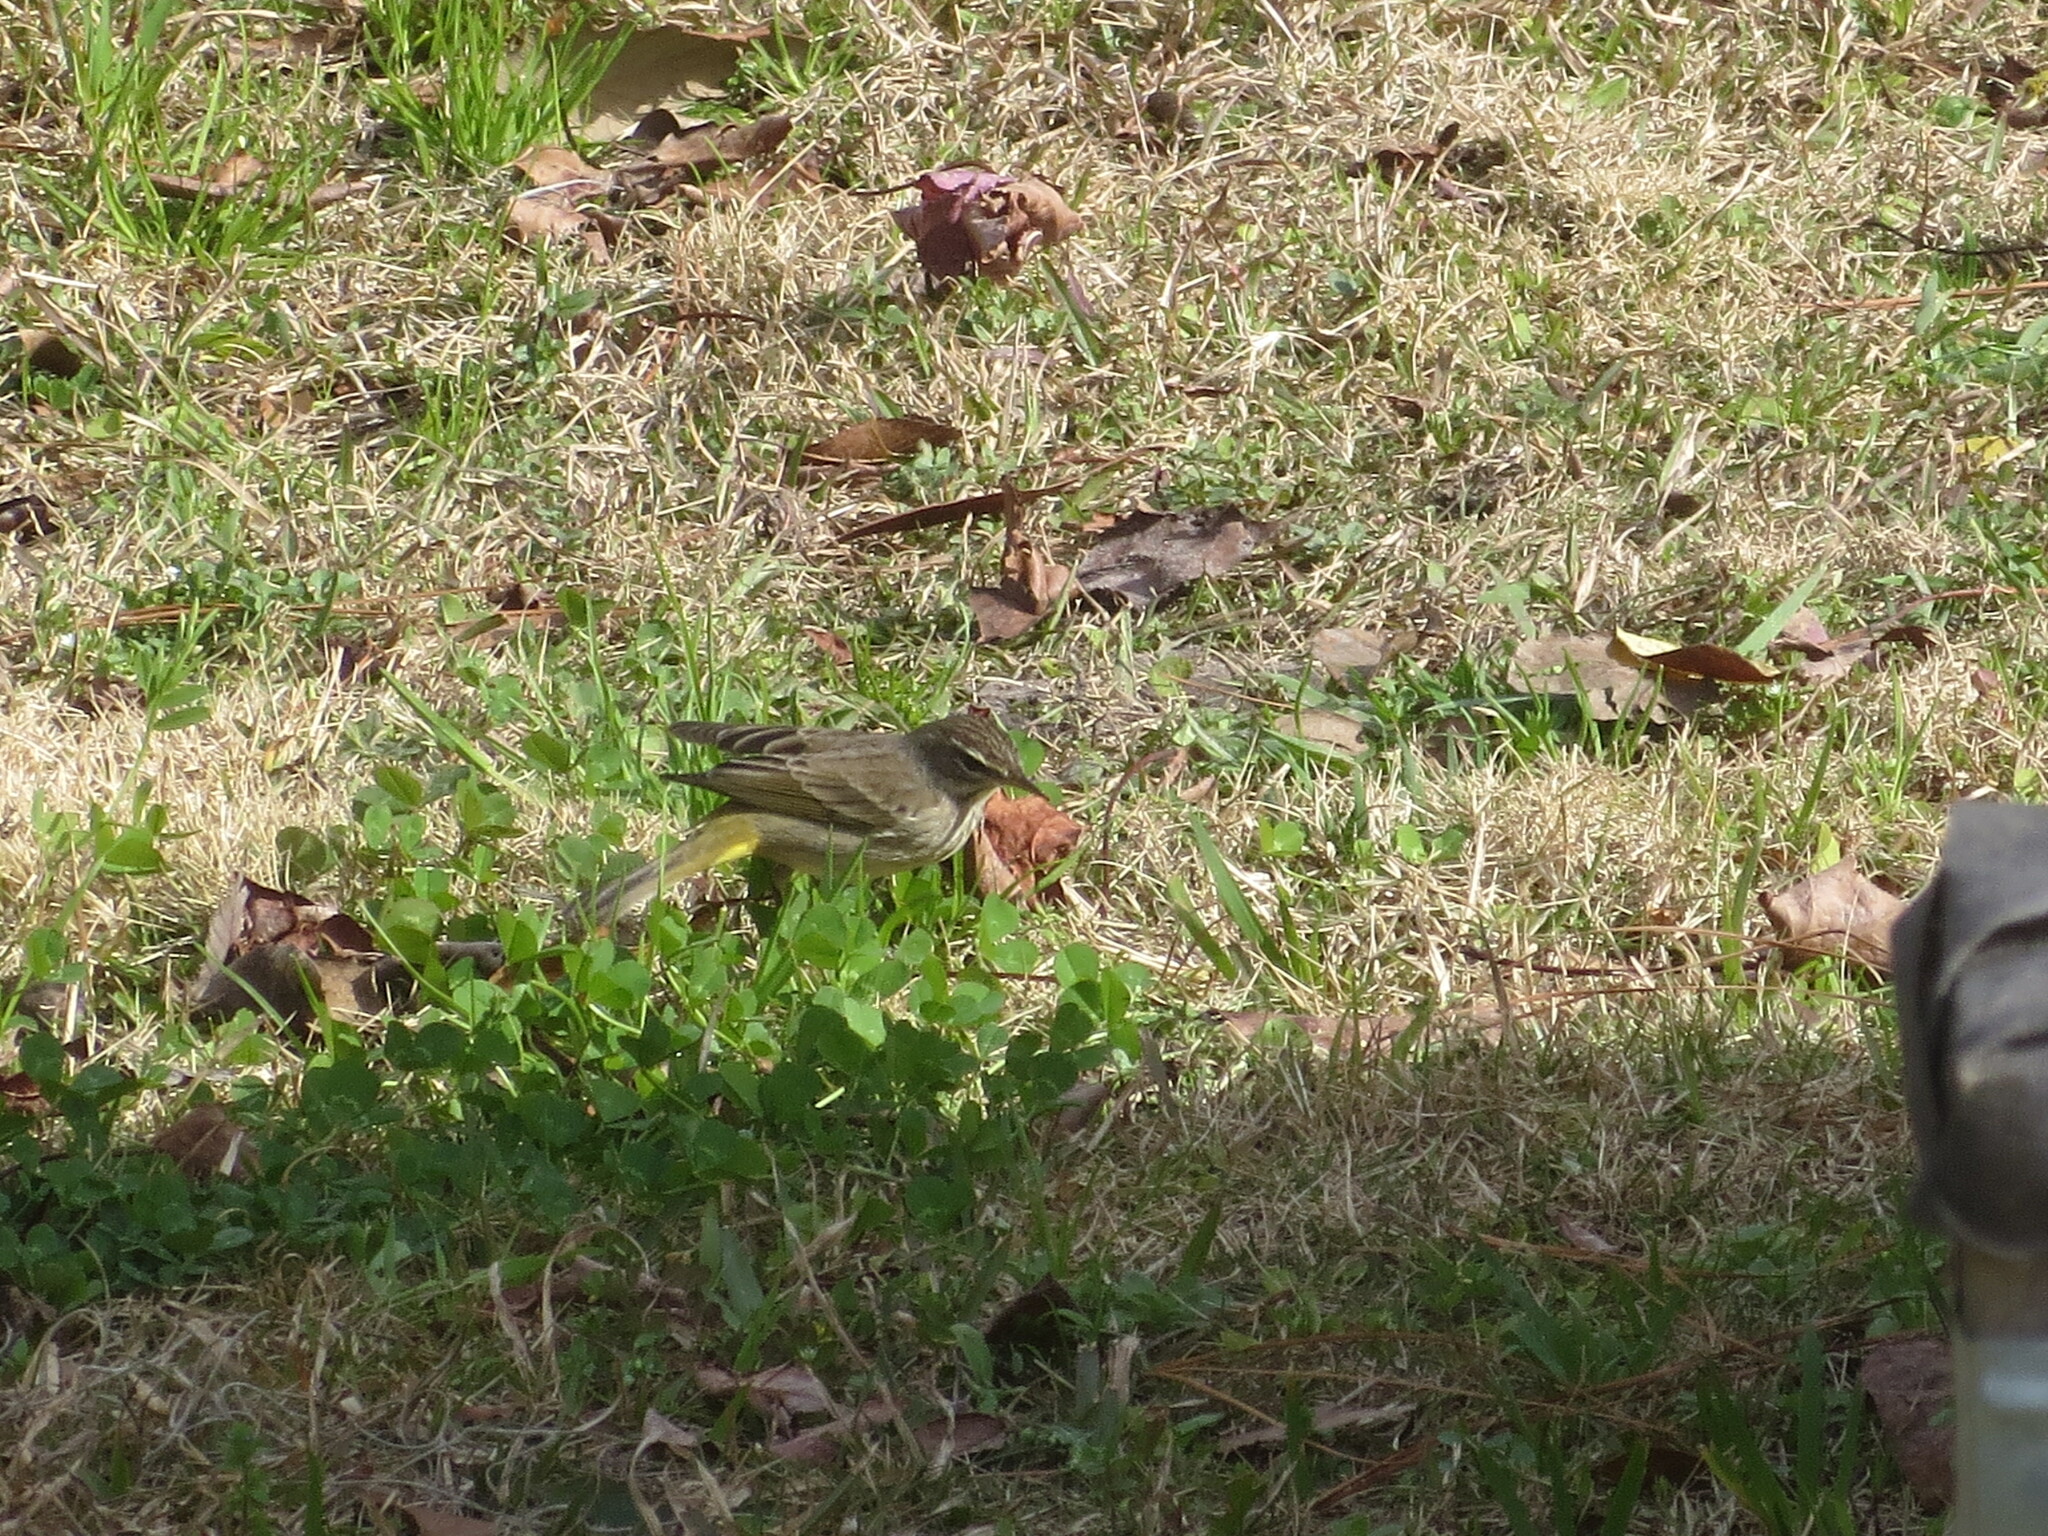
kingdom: Animalia
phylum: Chordata
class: Aves
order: Passeriformes
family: Parulidae
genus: Setophaga
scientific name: Setophaga palmarum
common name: Palm warbler
